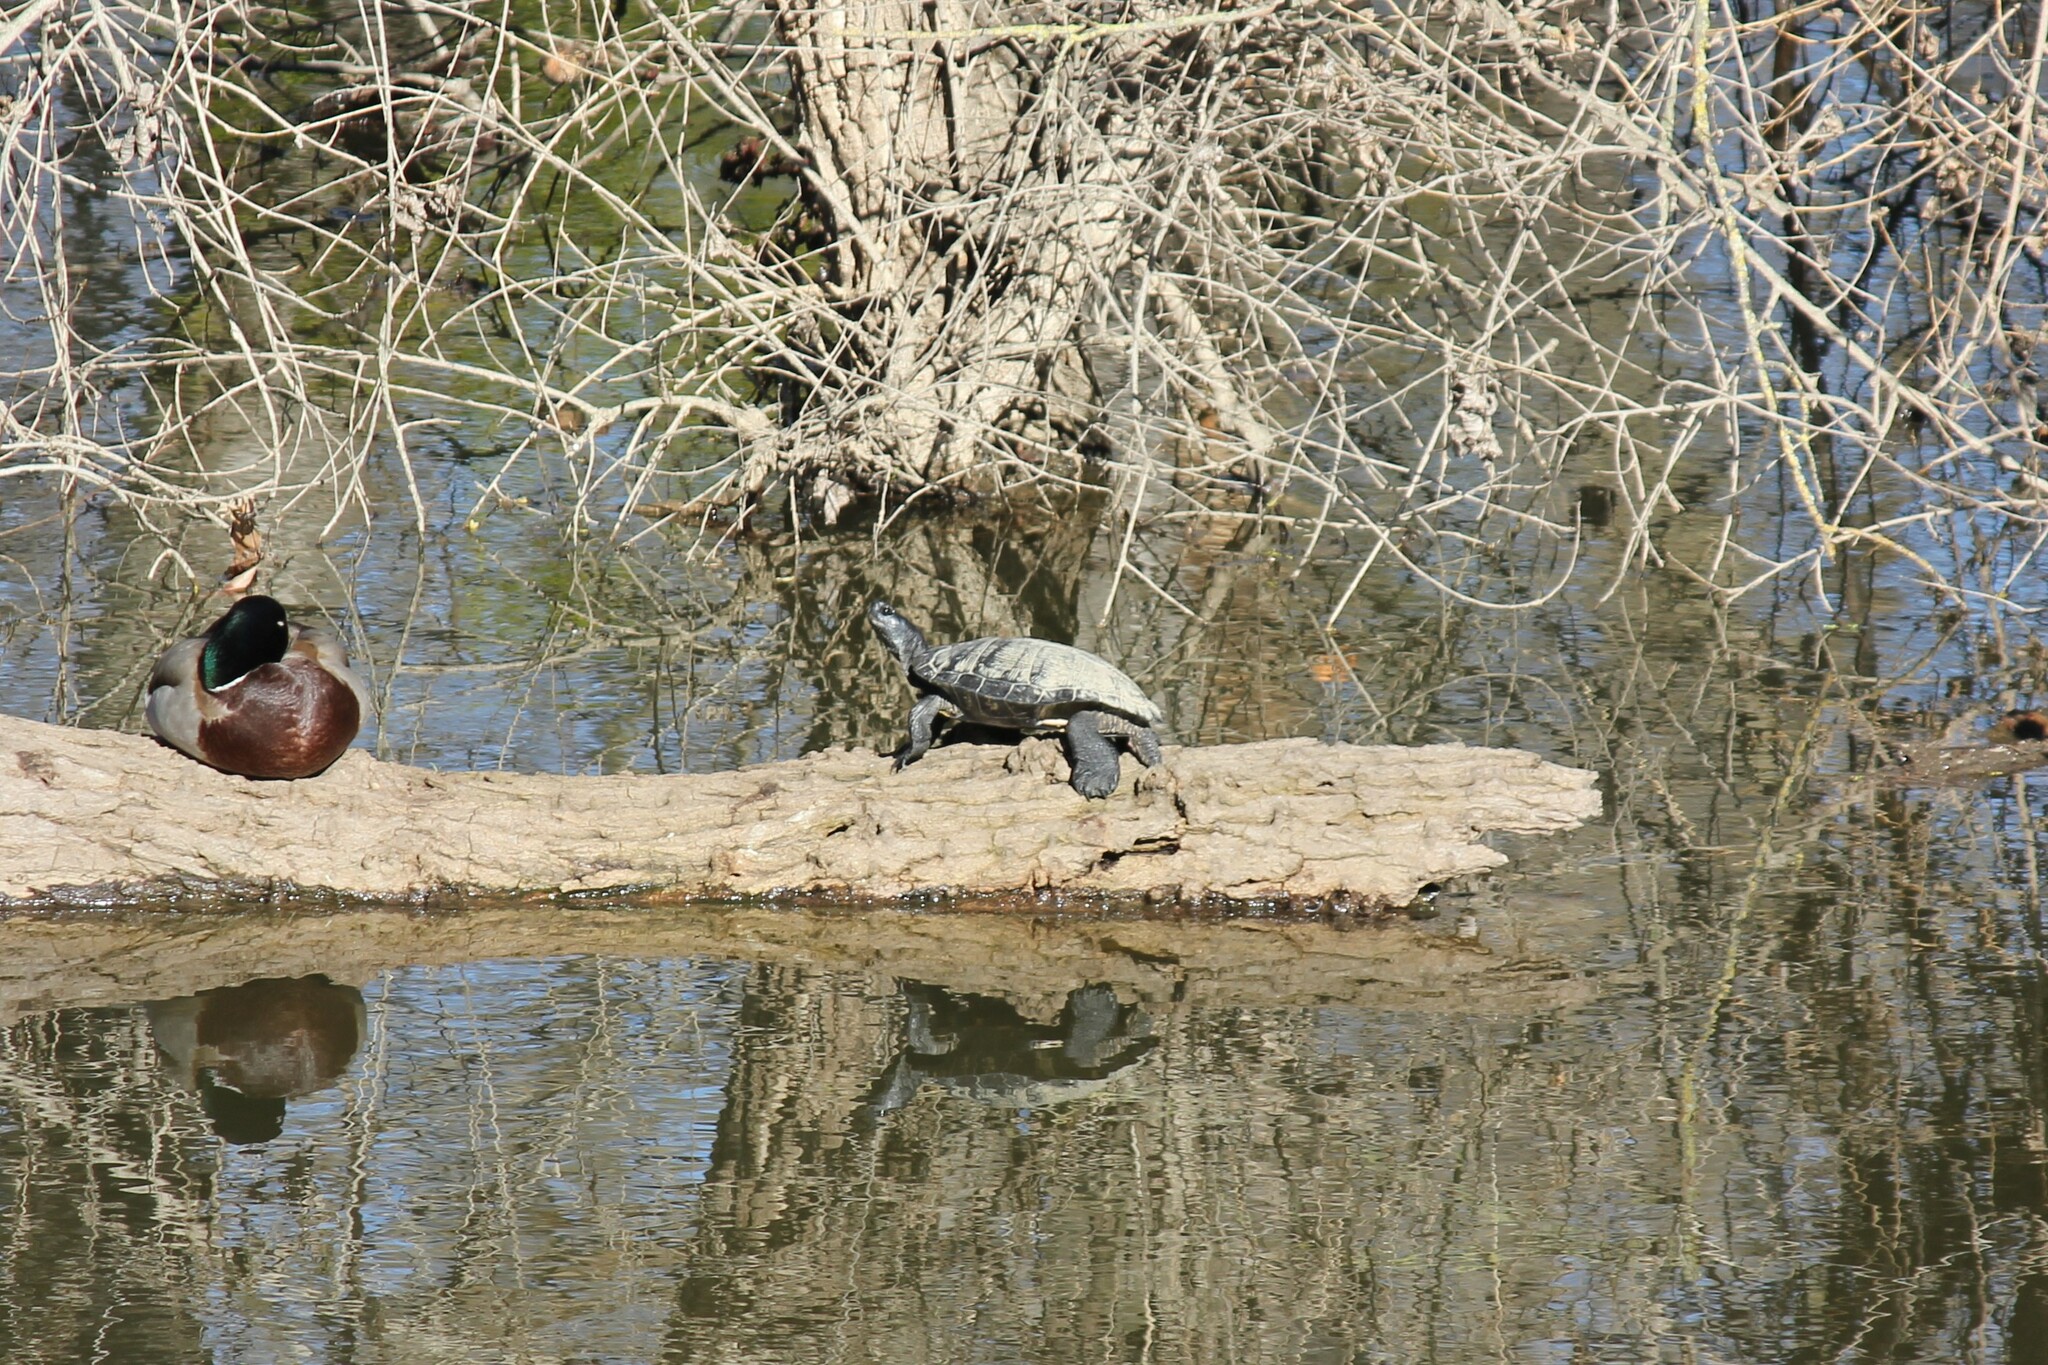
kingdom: Animalia
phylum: Chordata
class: Testudines
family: Emydidae
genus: Trachemys
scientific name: Trachemys scripta
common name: Slider
